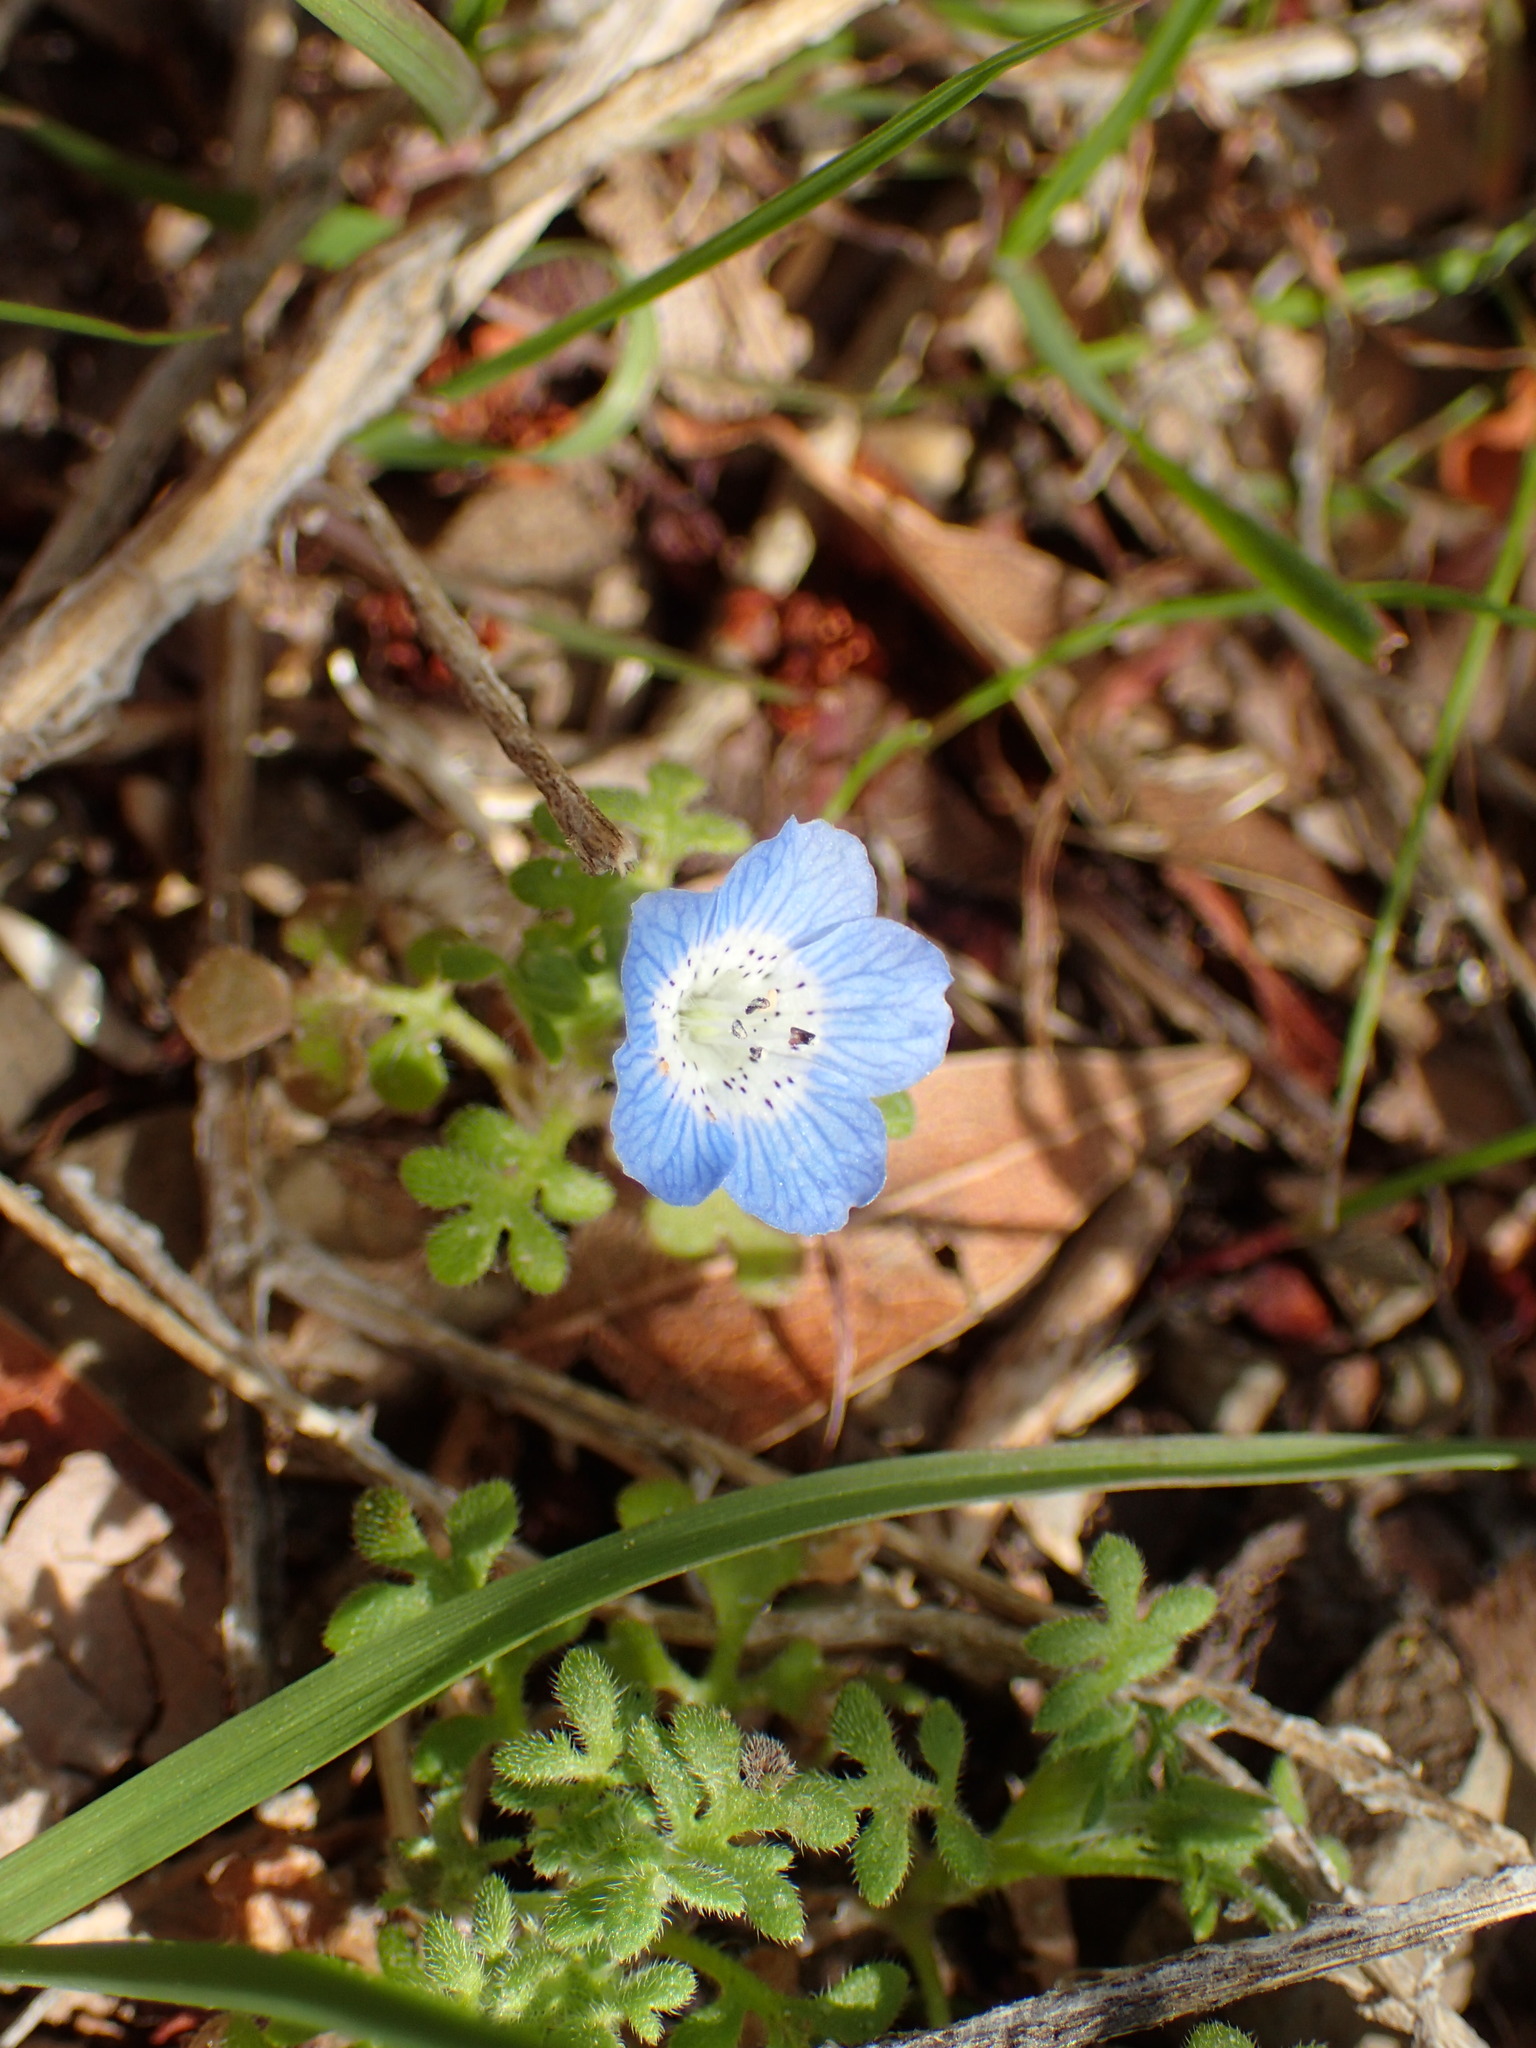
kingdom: Plantae
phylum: Tracheophyta
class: Magnoliopsida
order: Boraginales
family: Hydrophyllaceae
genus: Nemophila
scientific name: Nemophila menziesii
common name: Baby's-blue-eyes
